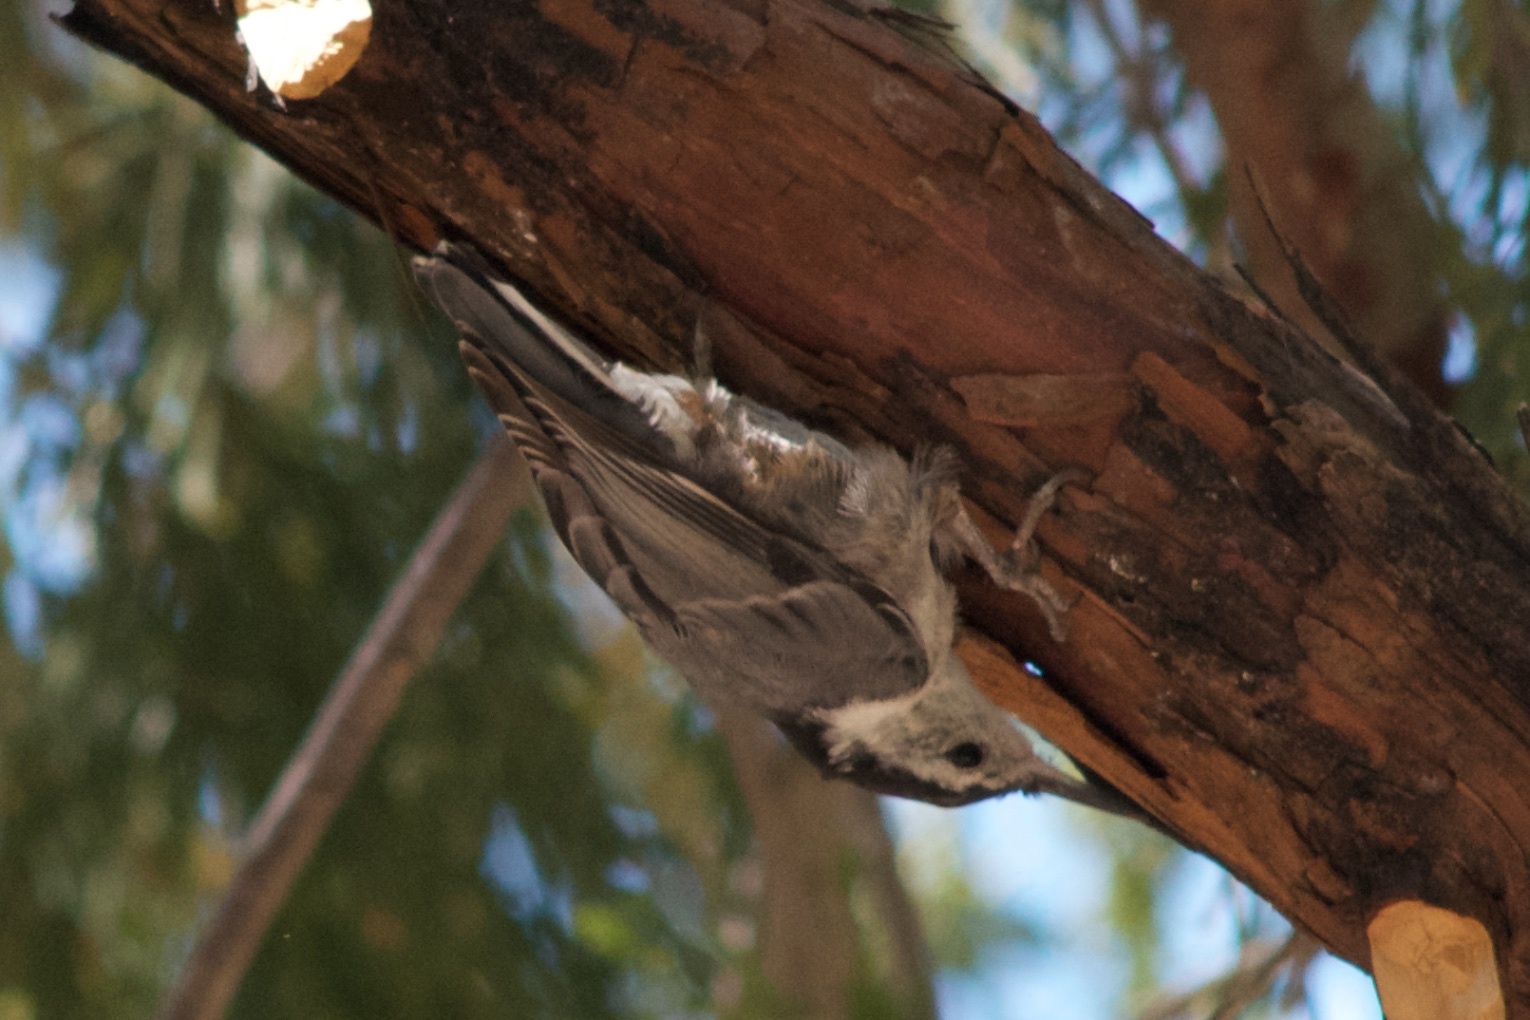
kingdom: Animalia
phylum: Chordata
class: Aves
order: Passeriformes
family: Sittidae
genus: Sitta
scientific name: Sitta carolinensis
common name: White-breasted nuthatch
